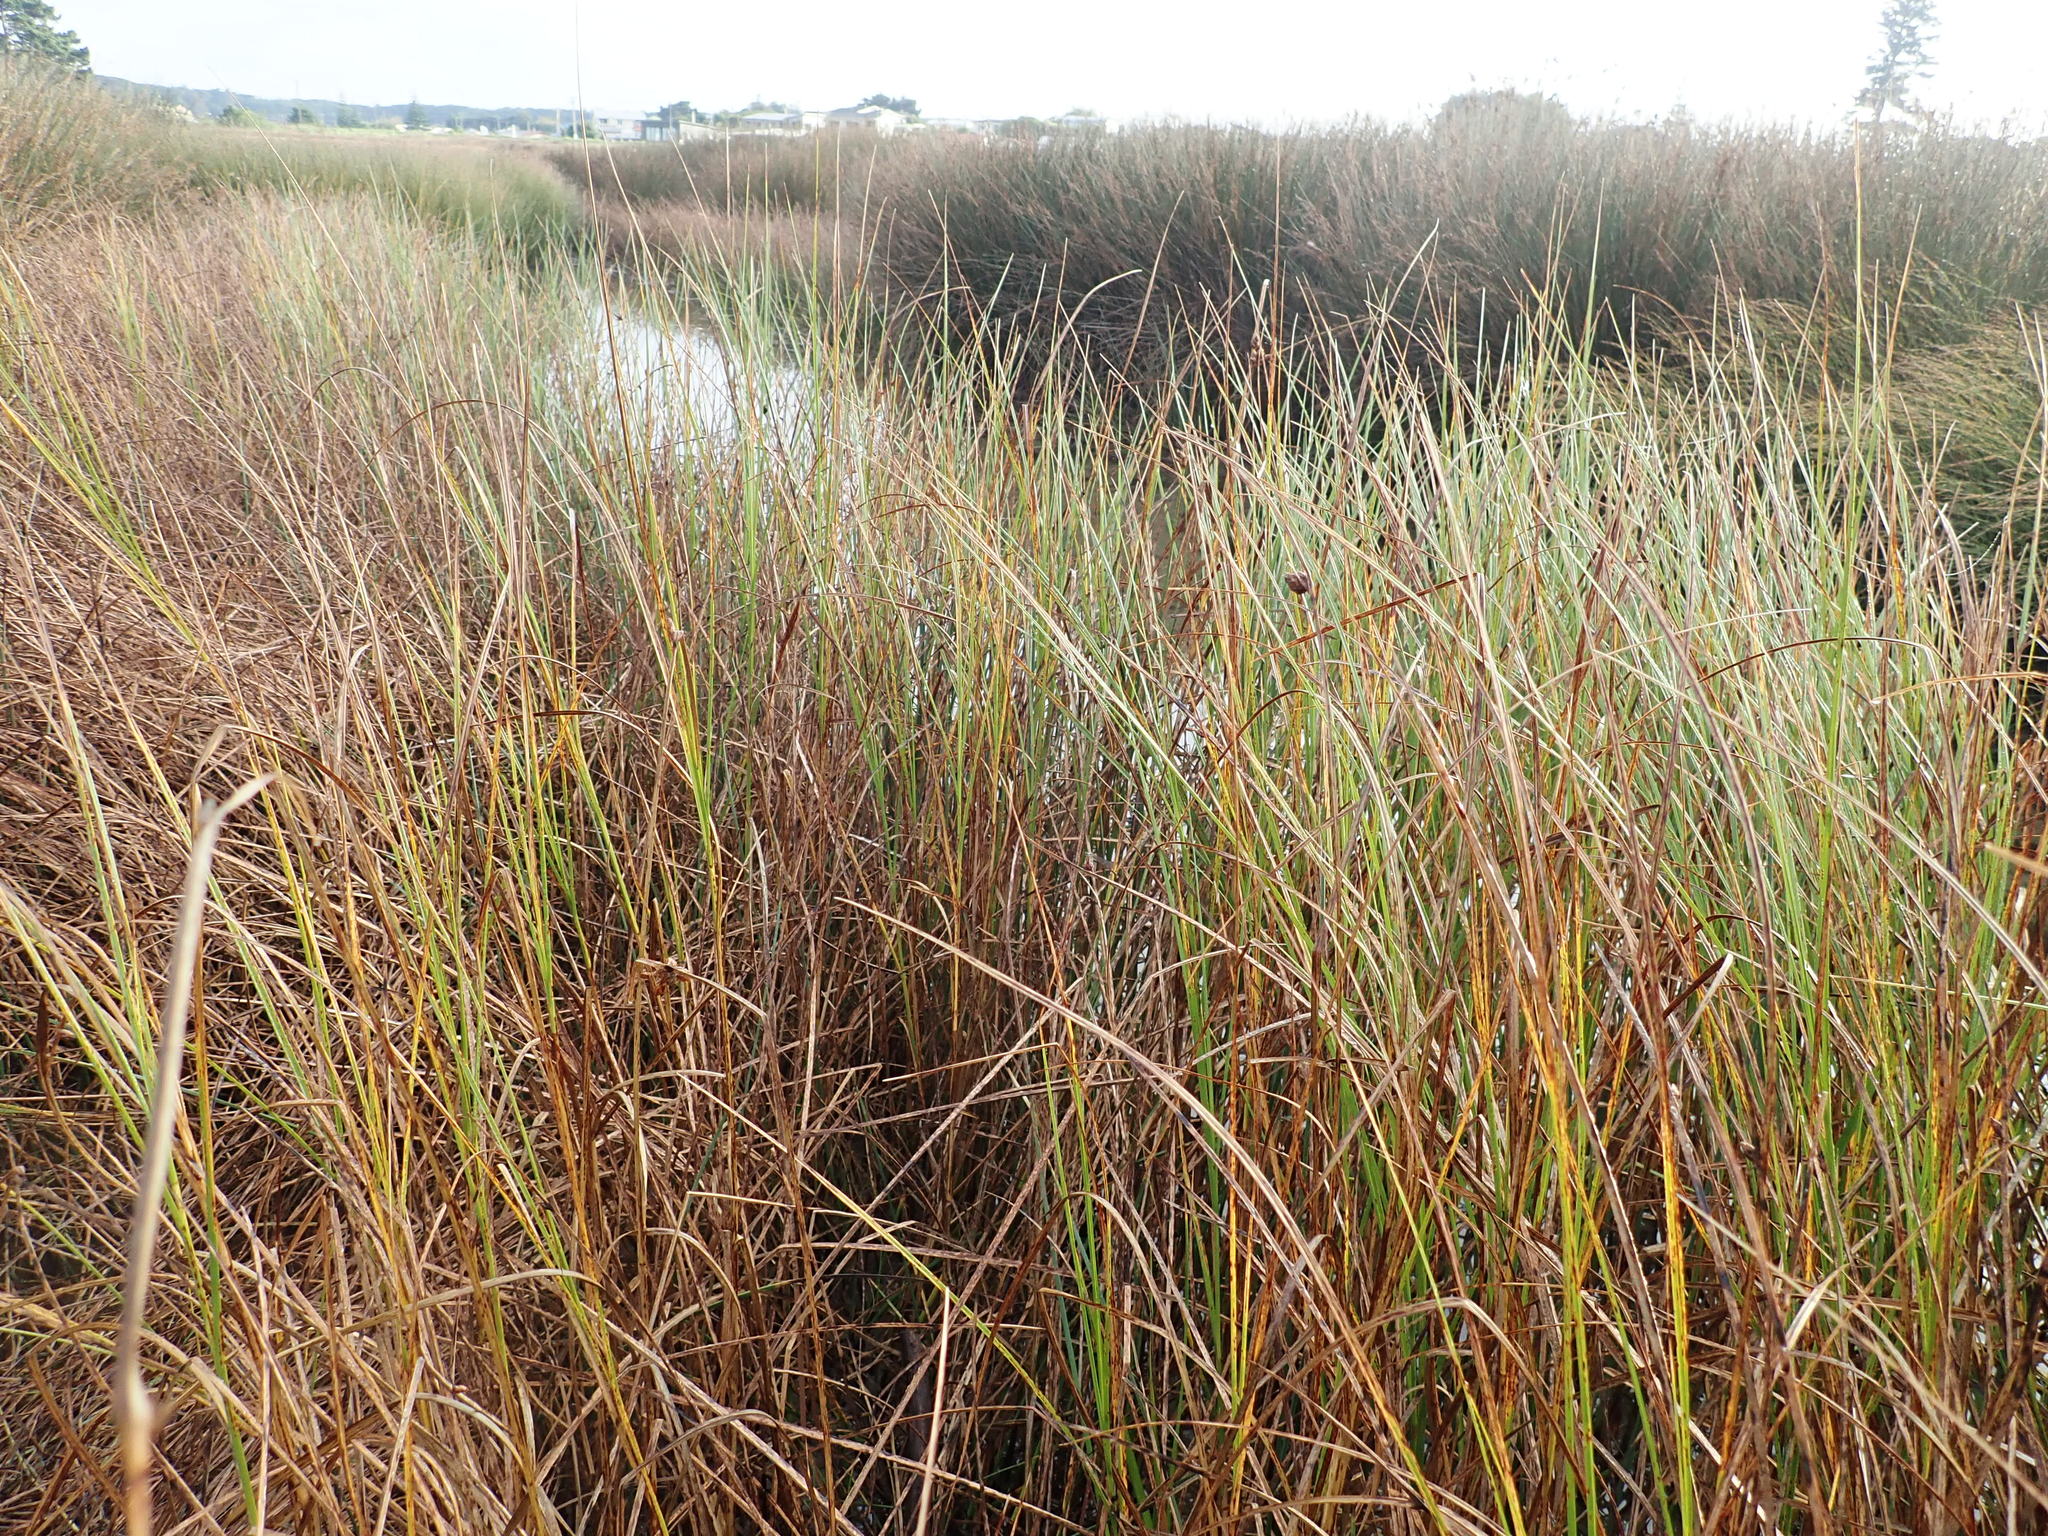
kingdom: Plantae
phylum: Tracheophyta
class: Liliopsida
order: Poales
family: Cyperaceae
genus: Bolboschoenus
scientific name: Bolboschoenus caldwellii
